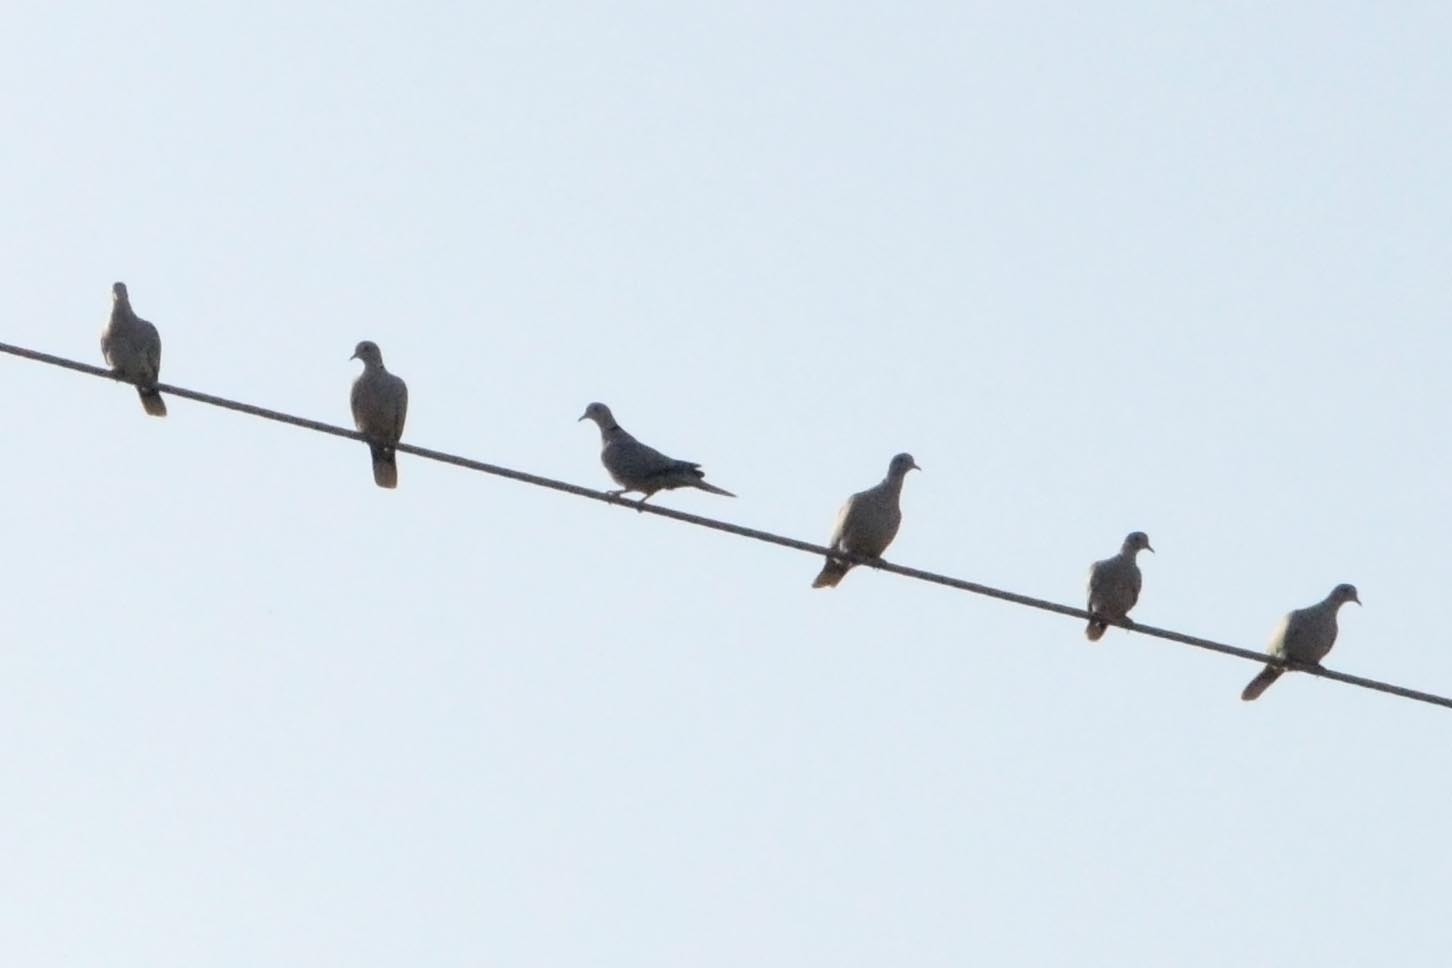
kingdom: Animalia
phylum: Chordata
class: Aves
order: Columbiformes
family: Columbidae
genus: Streptopelia
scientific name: Streptopelia decaocto
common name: Eurasian collared dove
